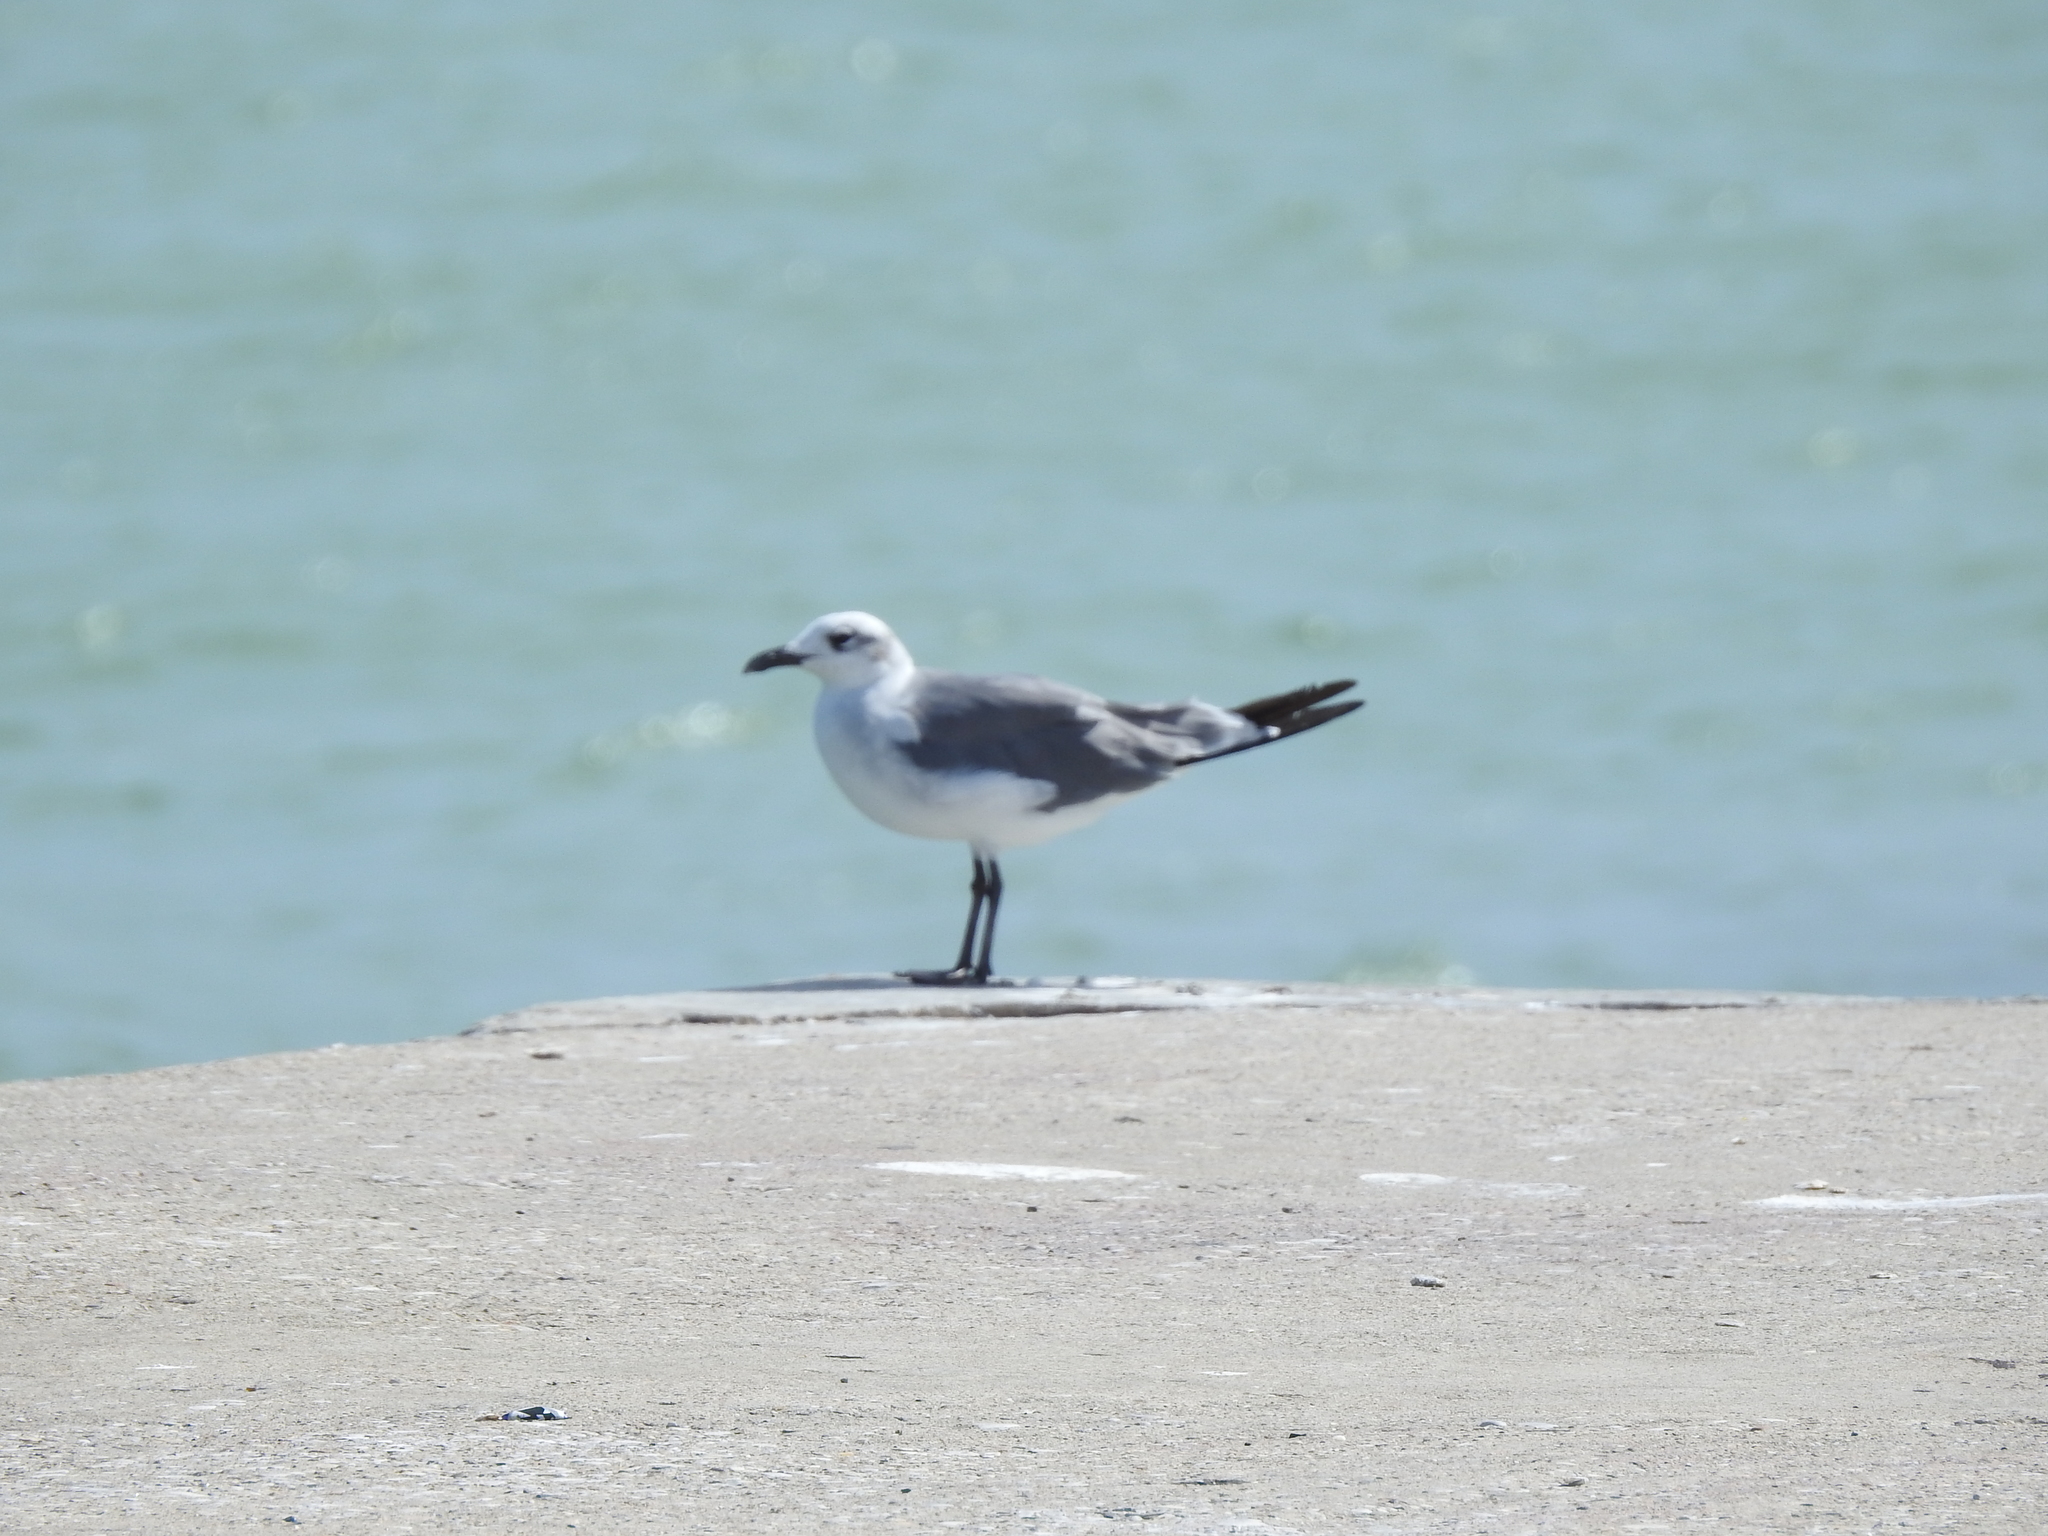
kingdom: Animalia
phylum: Chordata
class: Aves
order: Charadriiformes
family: Laridae
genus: Leucophaeus
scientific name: Leucophaeus atricilla
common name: Laughing gull
